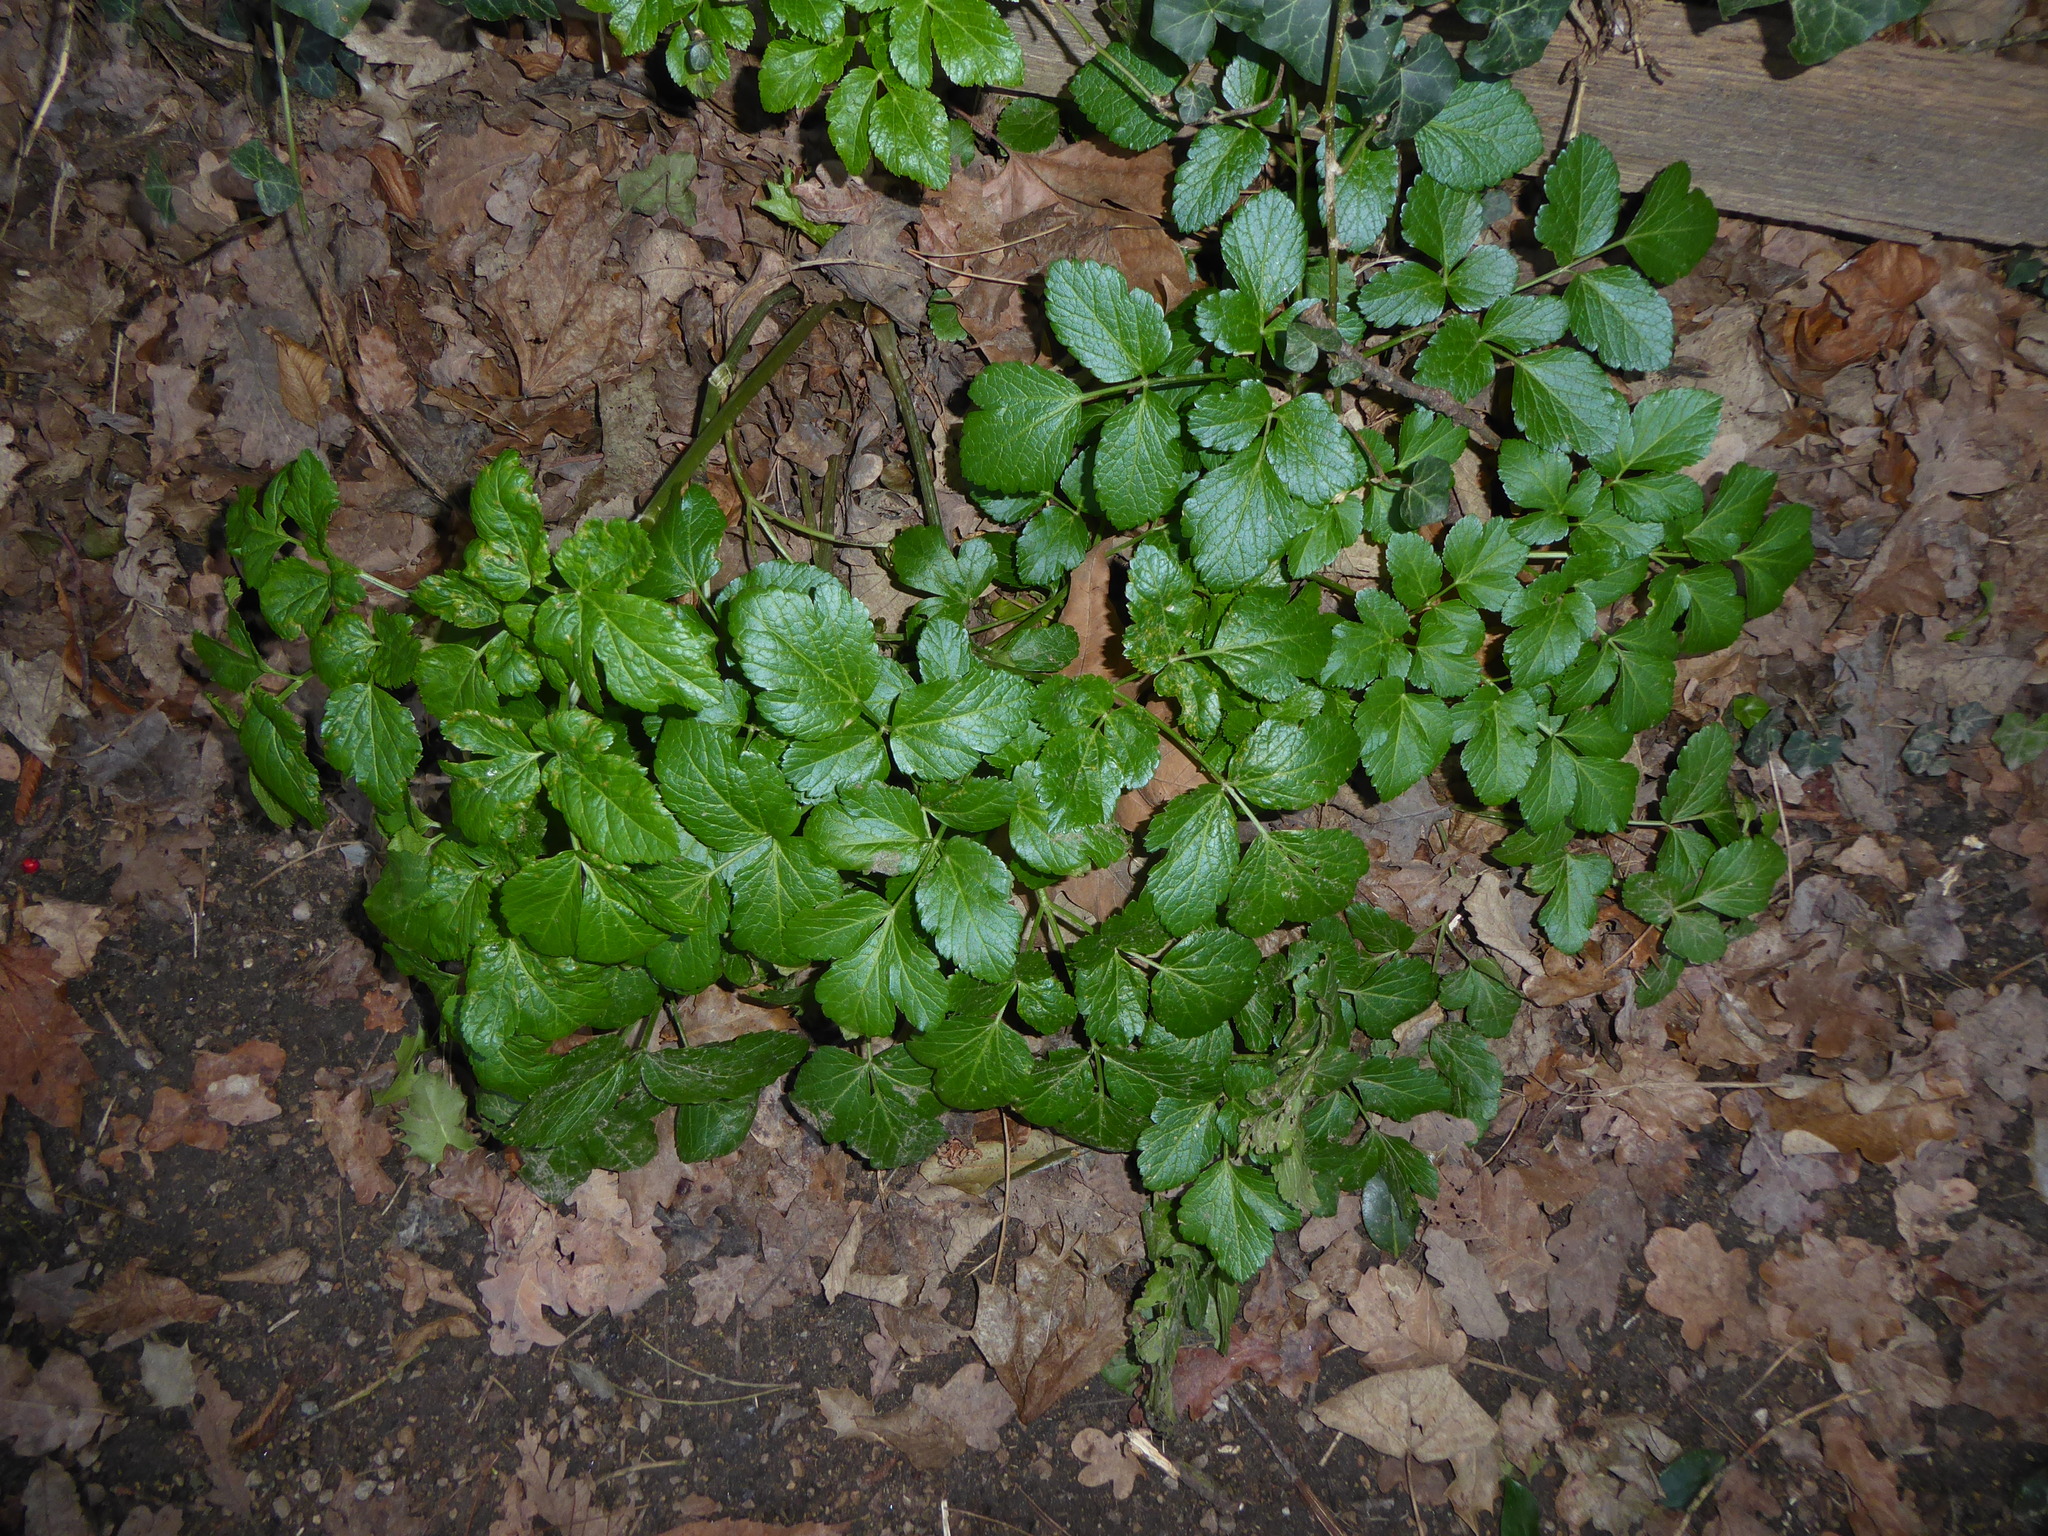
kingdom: Plantae
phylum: Tracheophyta
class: Magnoliopsida
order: Apiales
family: Apiaceae
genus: Smyrnium
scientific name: Smyrnium olusatrum
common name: Alexanders
